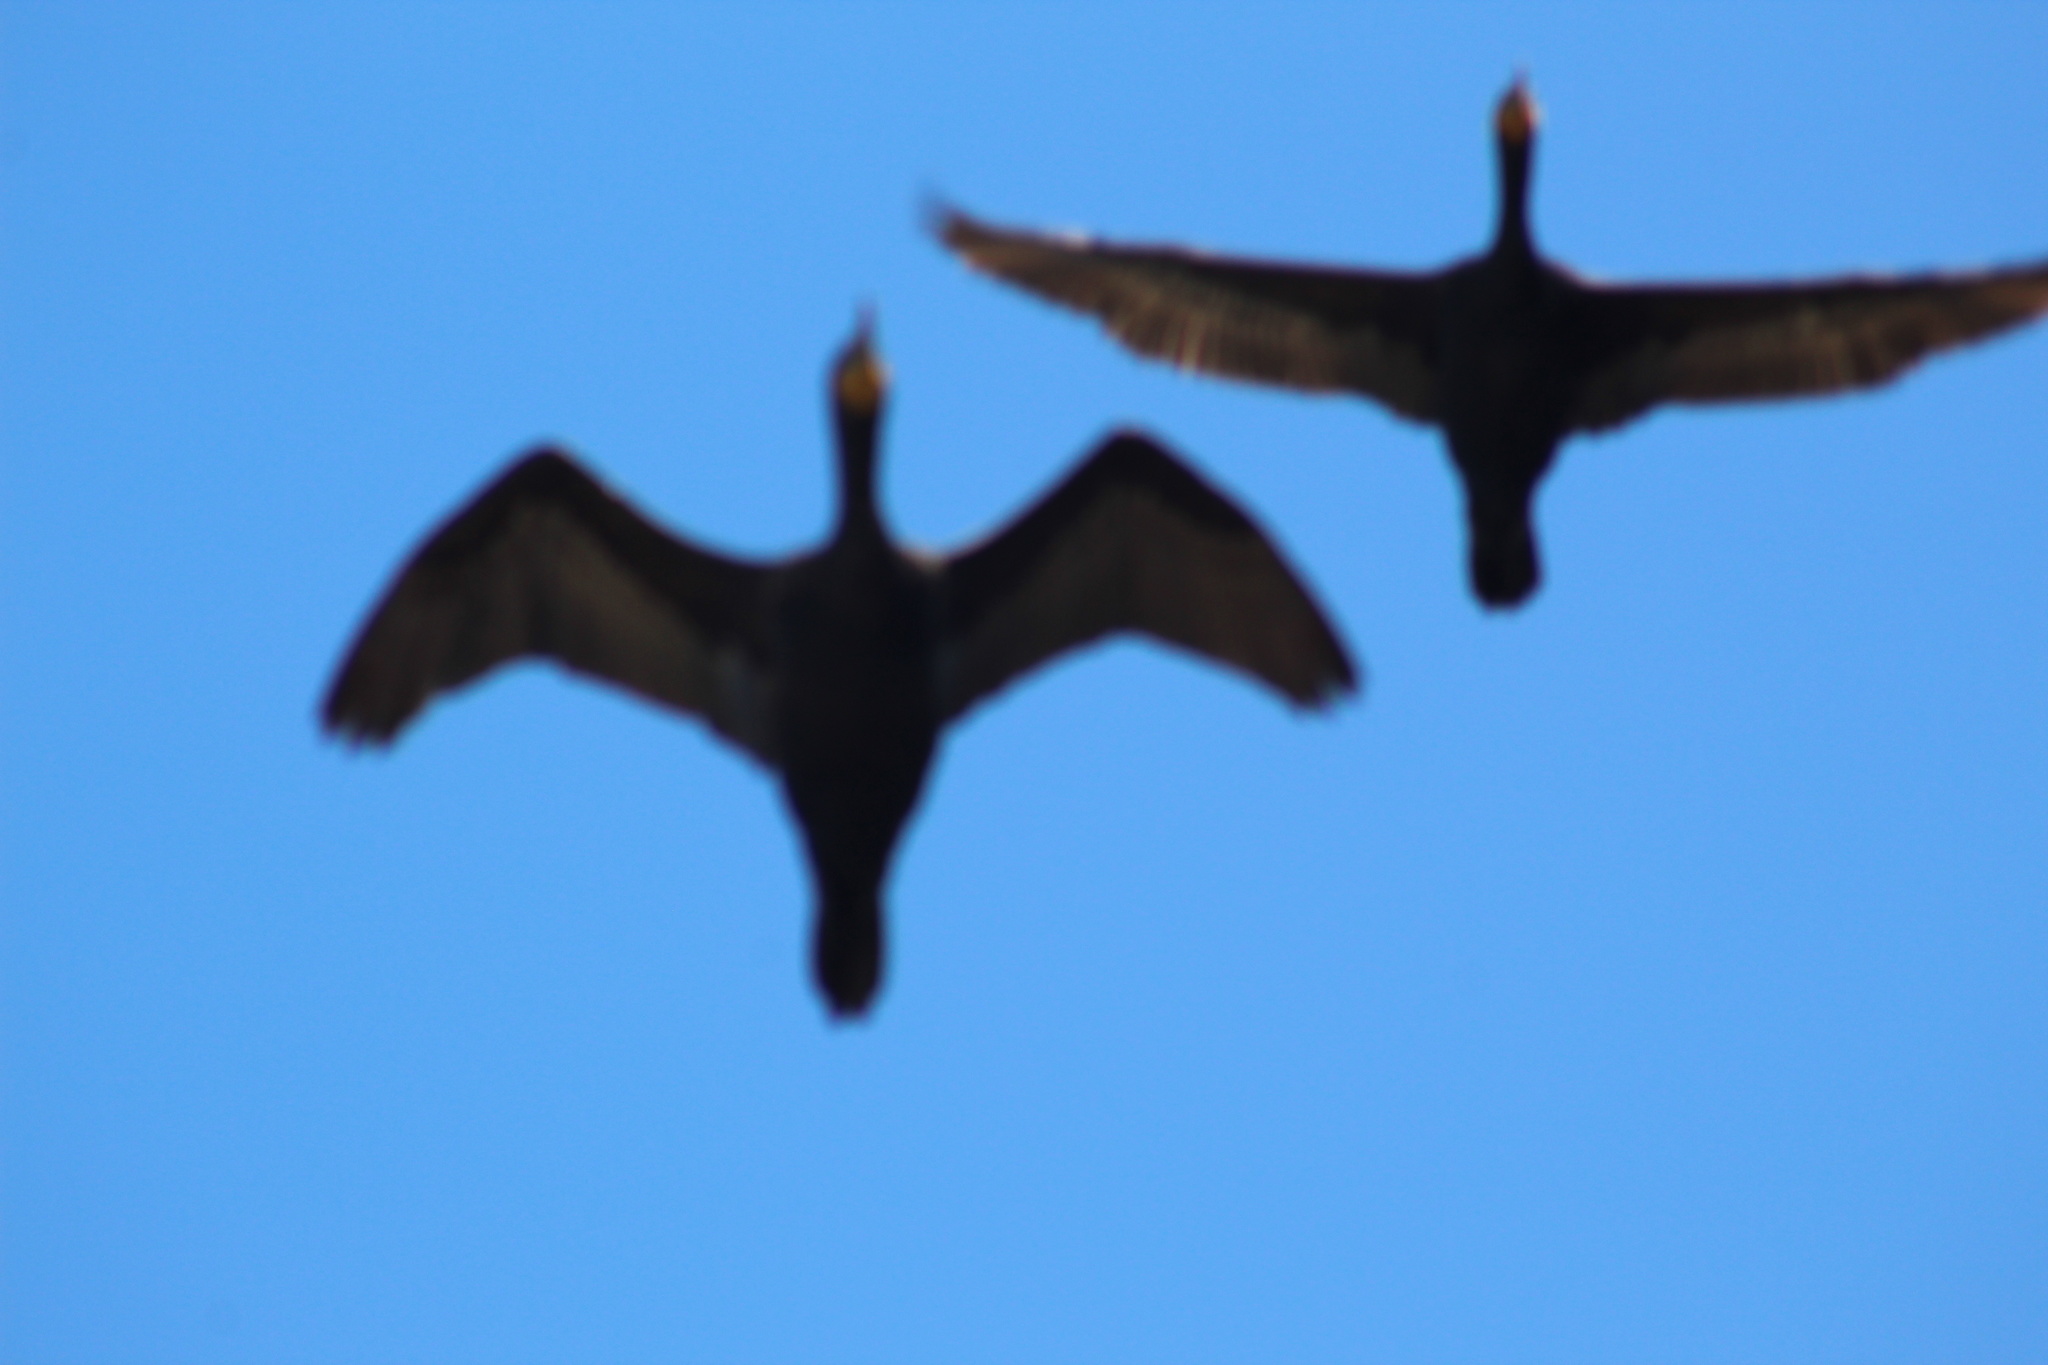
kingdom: Animalia
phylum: Chordata
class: Aves
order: Suliformes
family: Phalacrocoracidae
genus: Phalacrocorax
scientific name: Phalacrocorax auritus
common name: Double-crested cormorant
